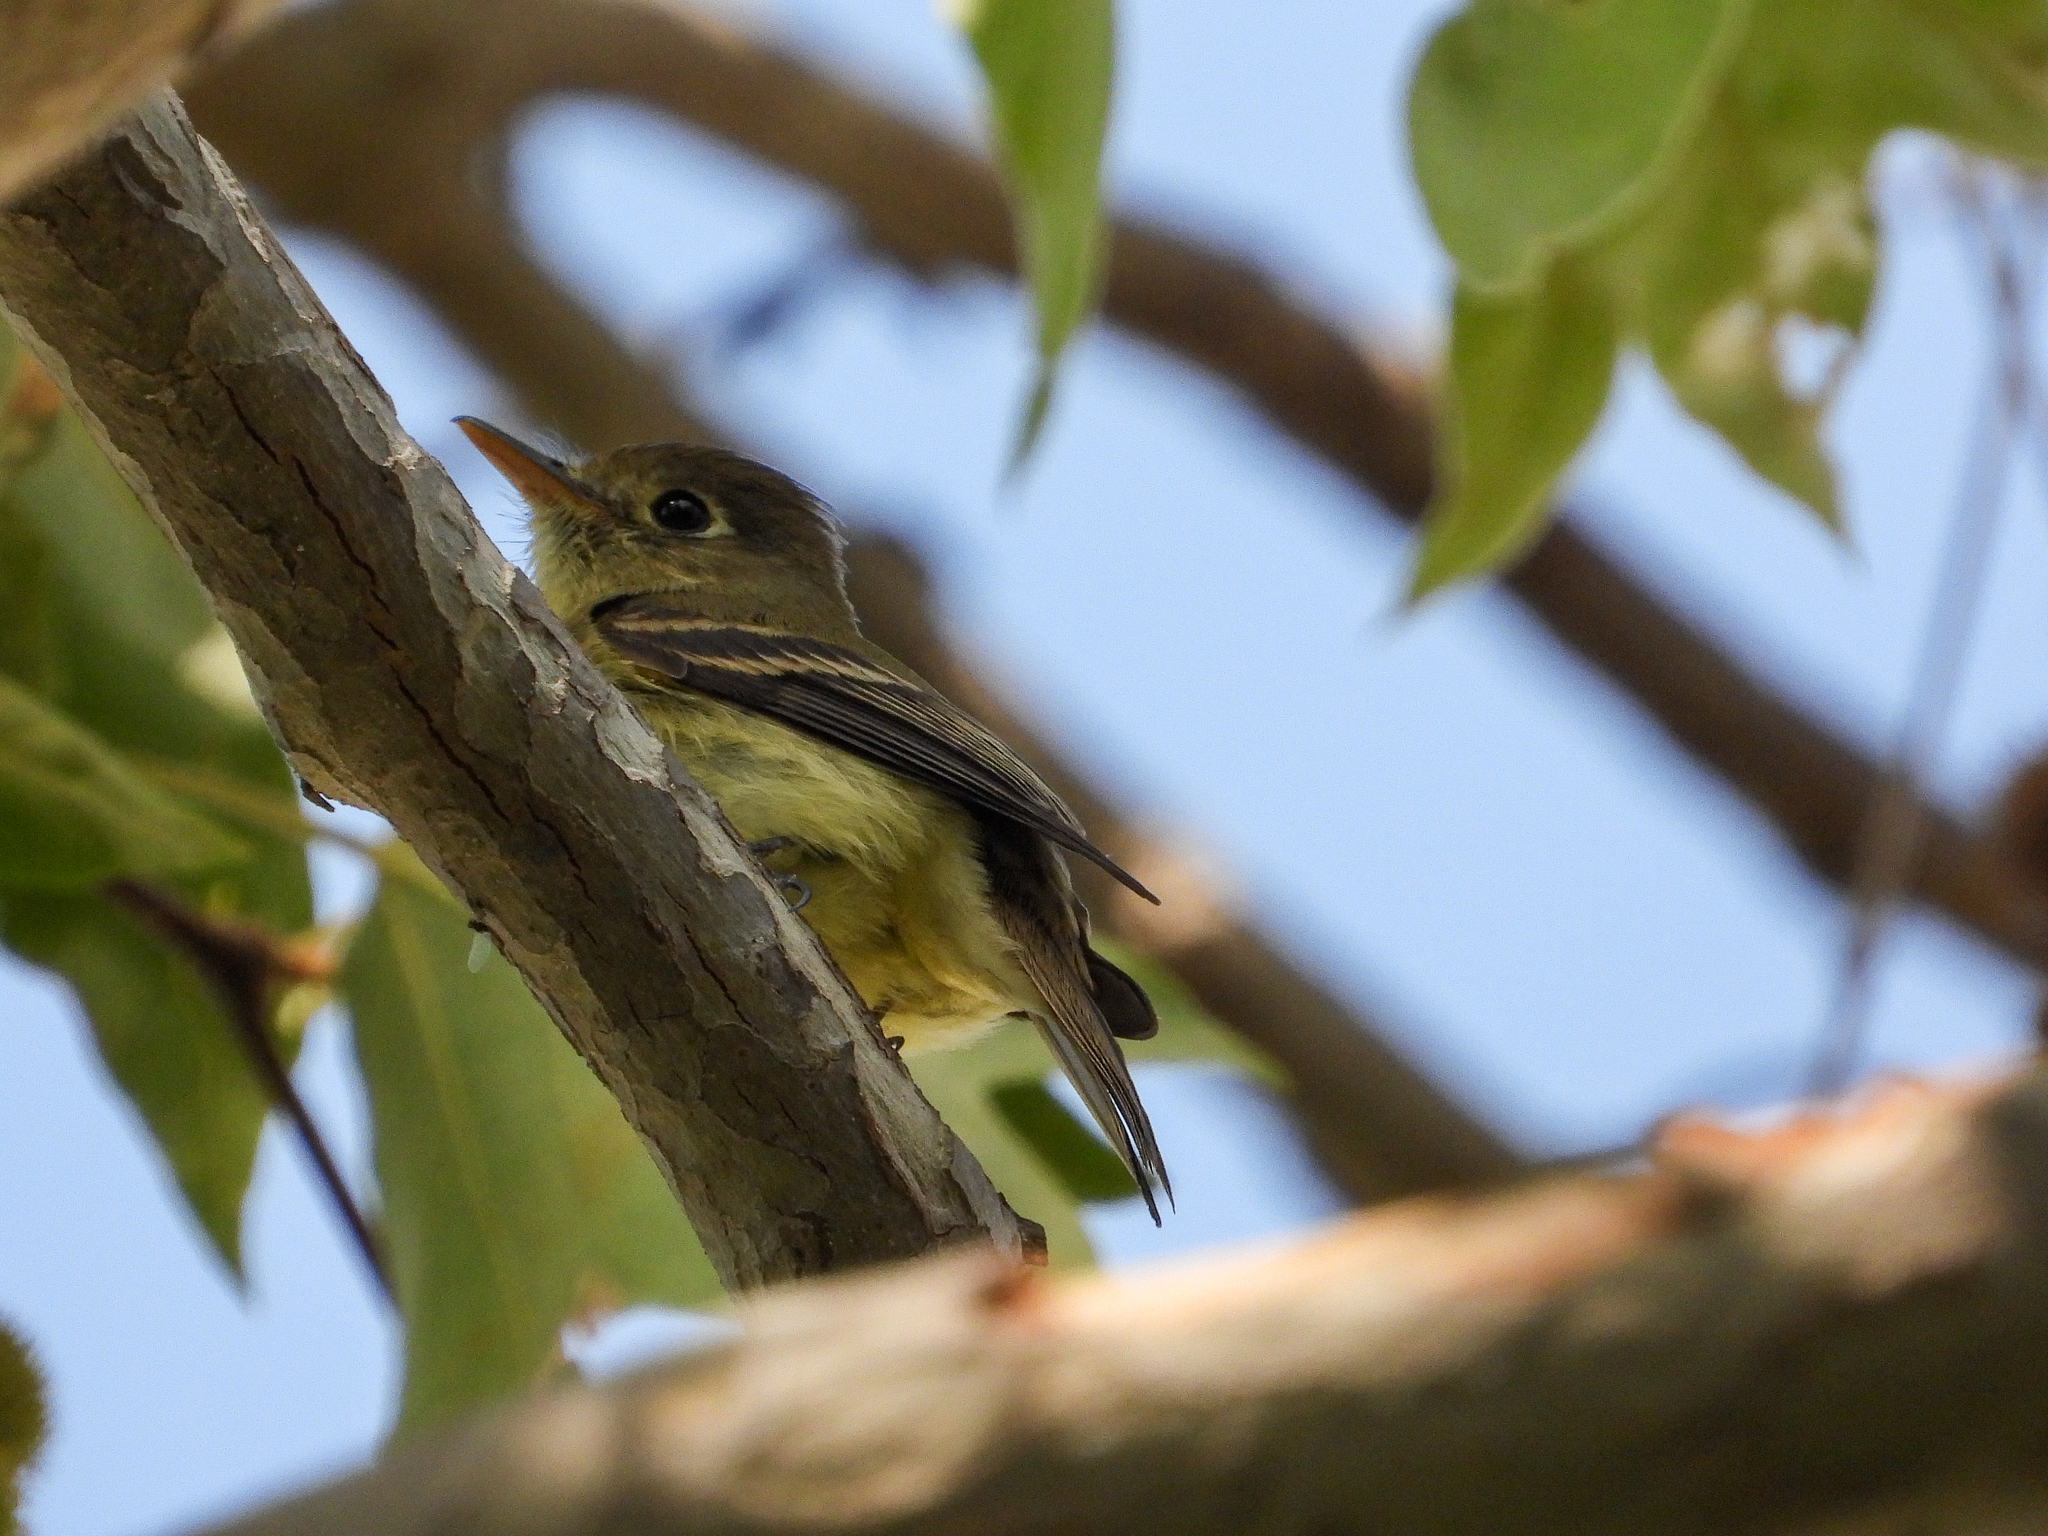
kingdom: Animalia
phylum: Chordata
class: Aves
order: Passeriformes
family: Tyrannidae
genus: Empidonax
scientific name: Empidonax difficilis
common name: Pacific-slope flycatcher
